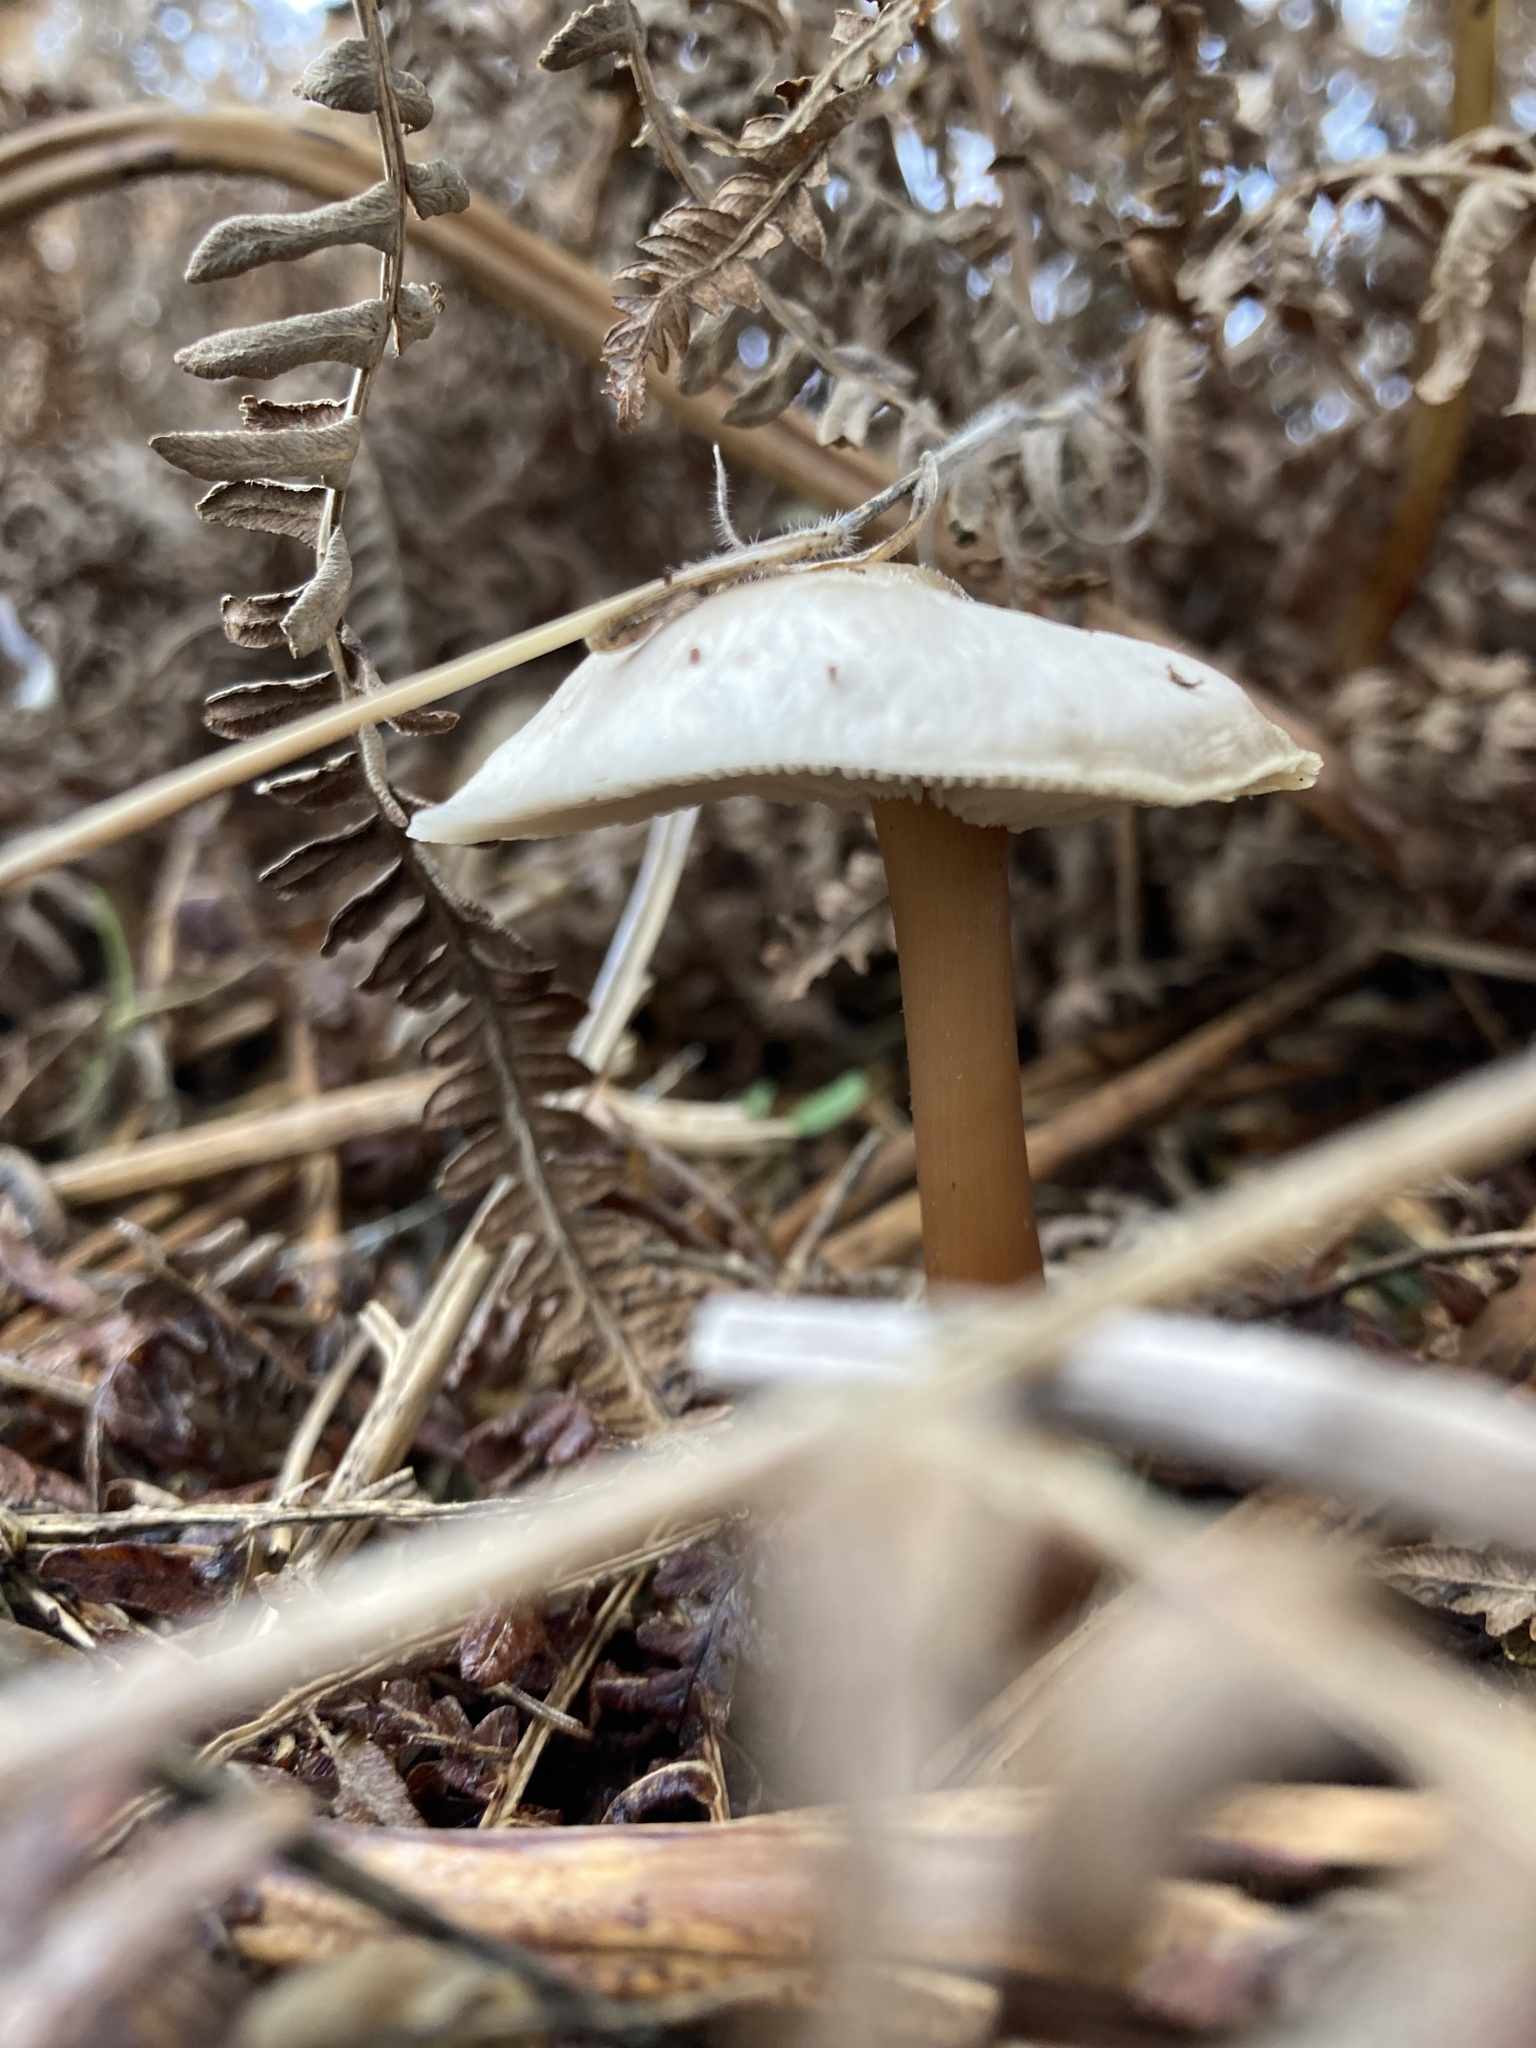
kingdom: Fungi
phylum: Basidiomycota
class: Agaricomycetes
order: Agaricales
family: Omphalotaceae
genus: Rhodocollybia
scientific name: Rhodocollybia asema
